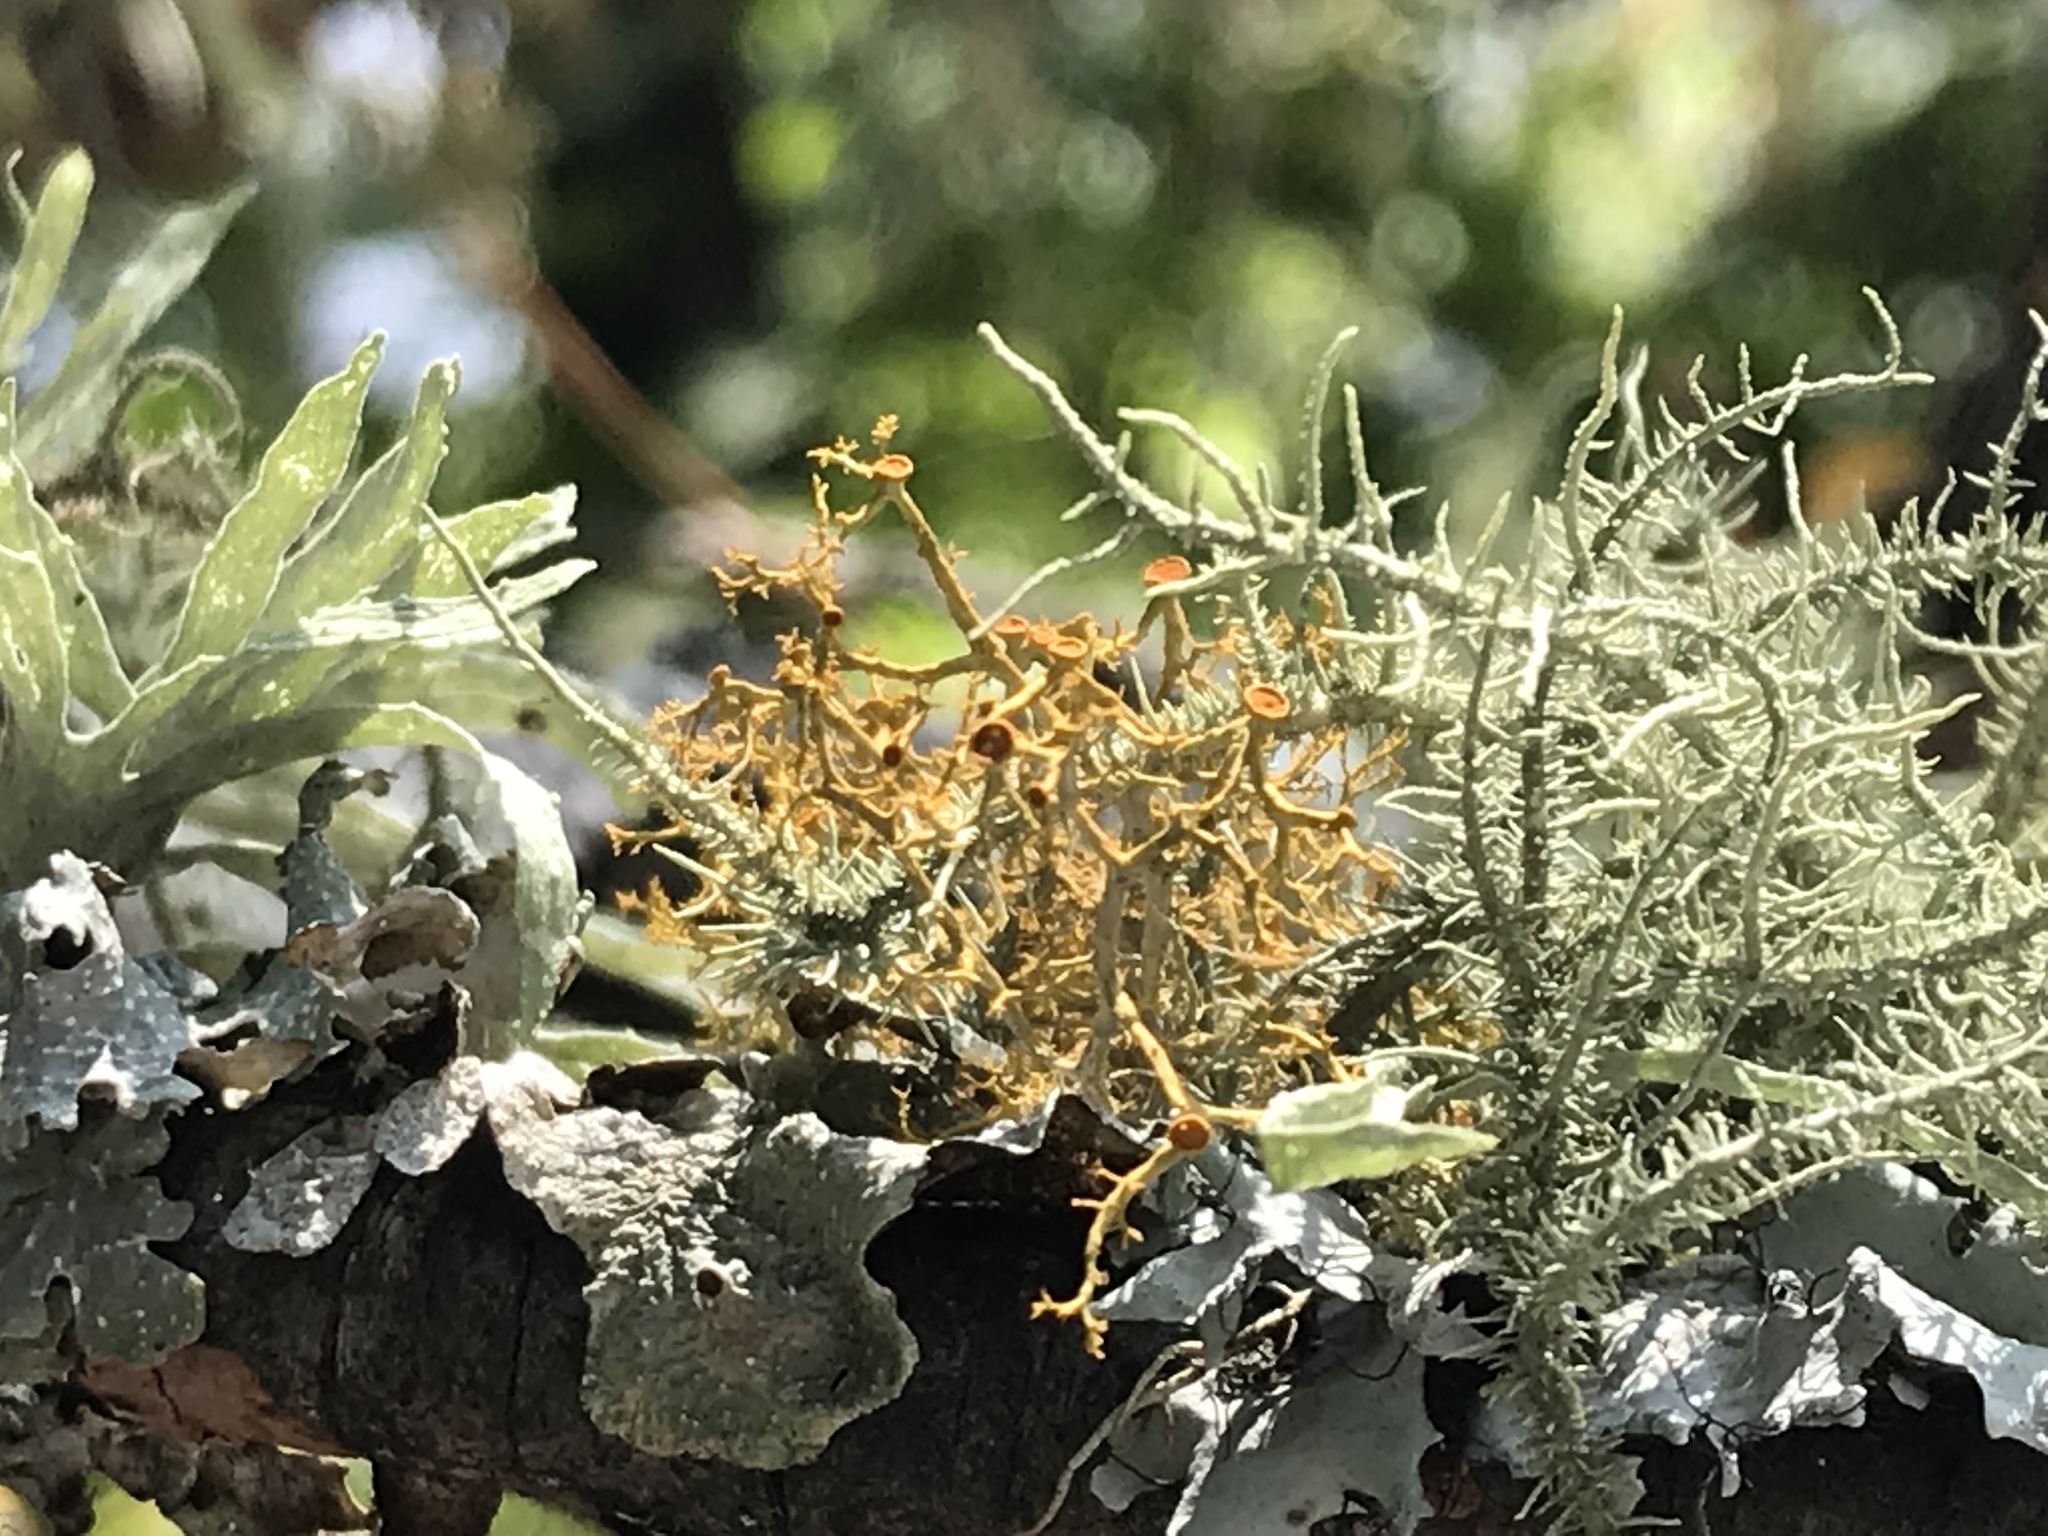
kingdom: Fungi
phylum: Ascomycota
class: Lecanoromycetes
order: Teloschistales
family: Teloschistaceae
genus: Teloschistes
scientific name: Teloschistes exilis
